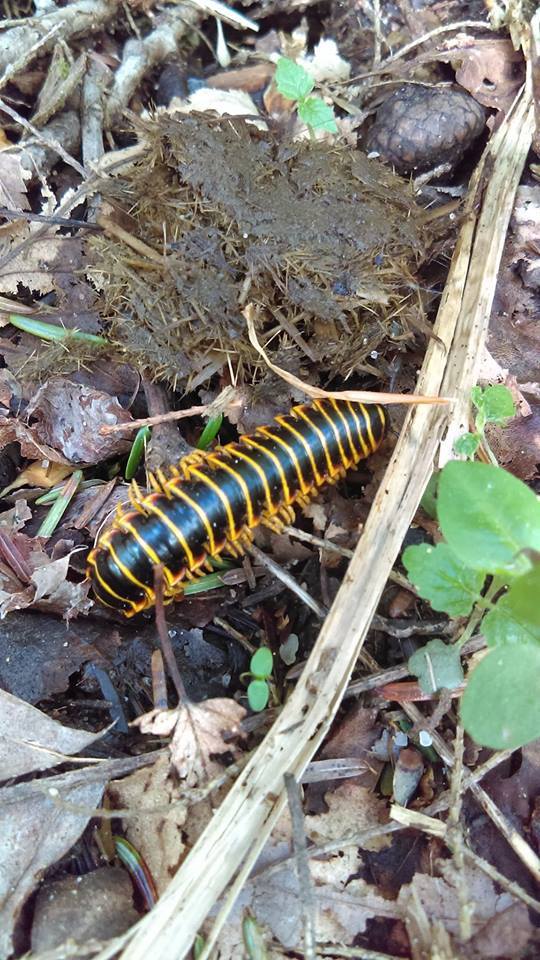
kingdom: Animalia
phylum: Arthropoda
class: Diplopoda
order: Polydesmida
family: Xystodesmidae
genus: Apheloria
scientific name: Apheloria virginiensis
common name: Black-and-gold flat millipede
